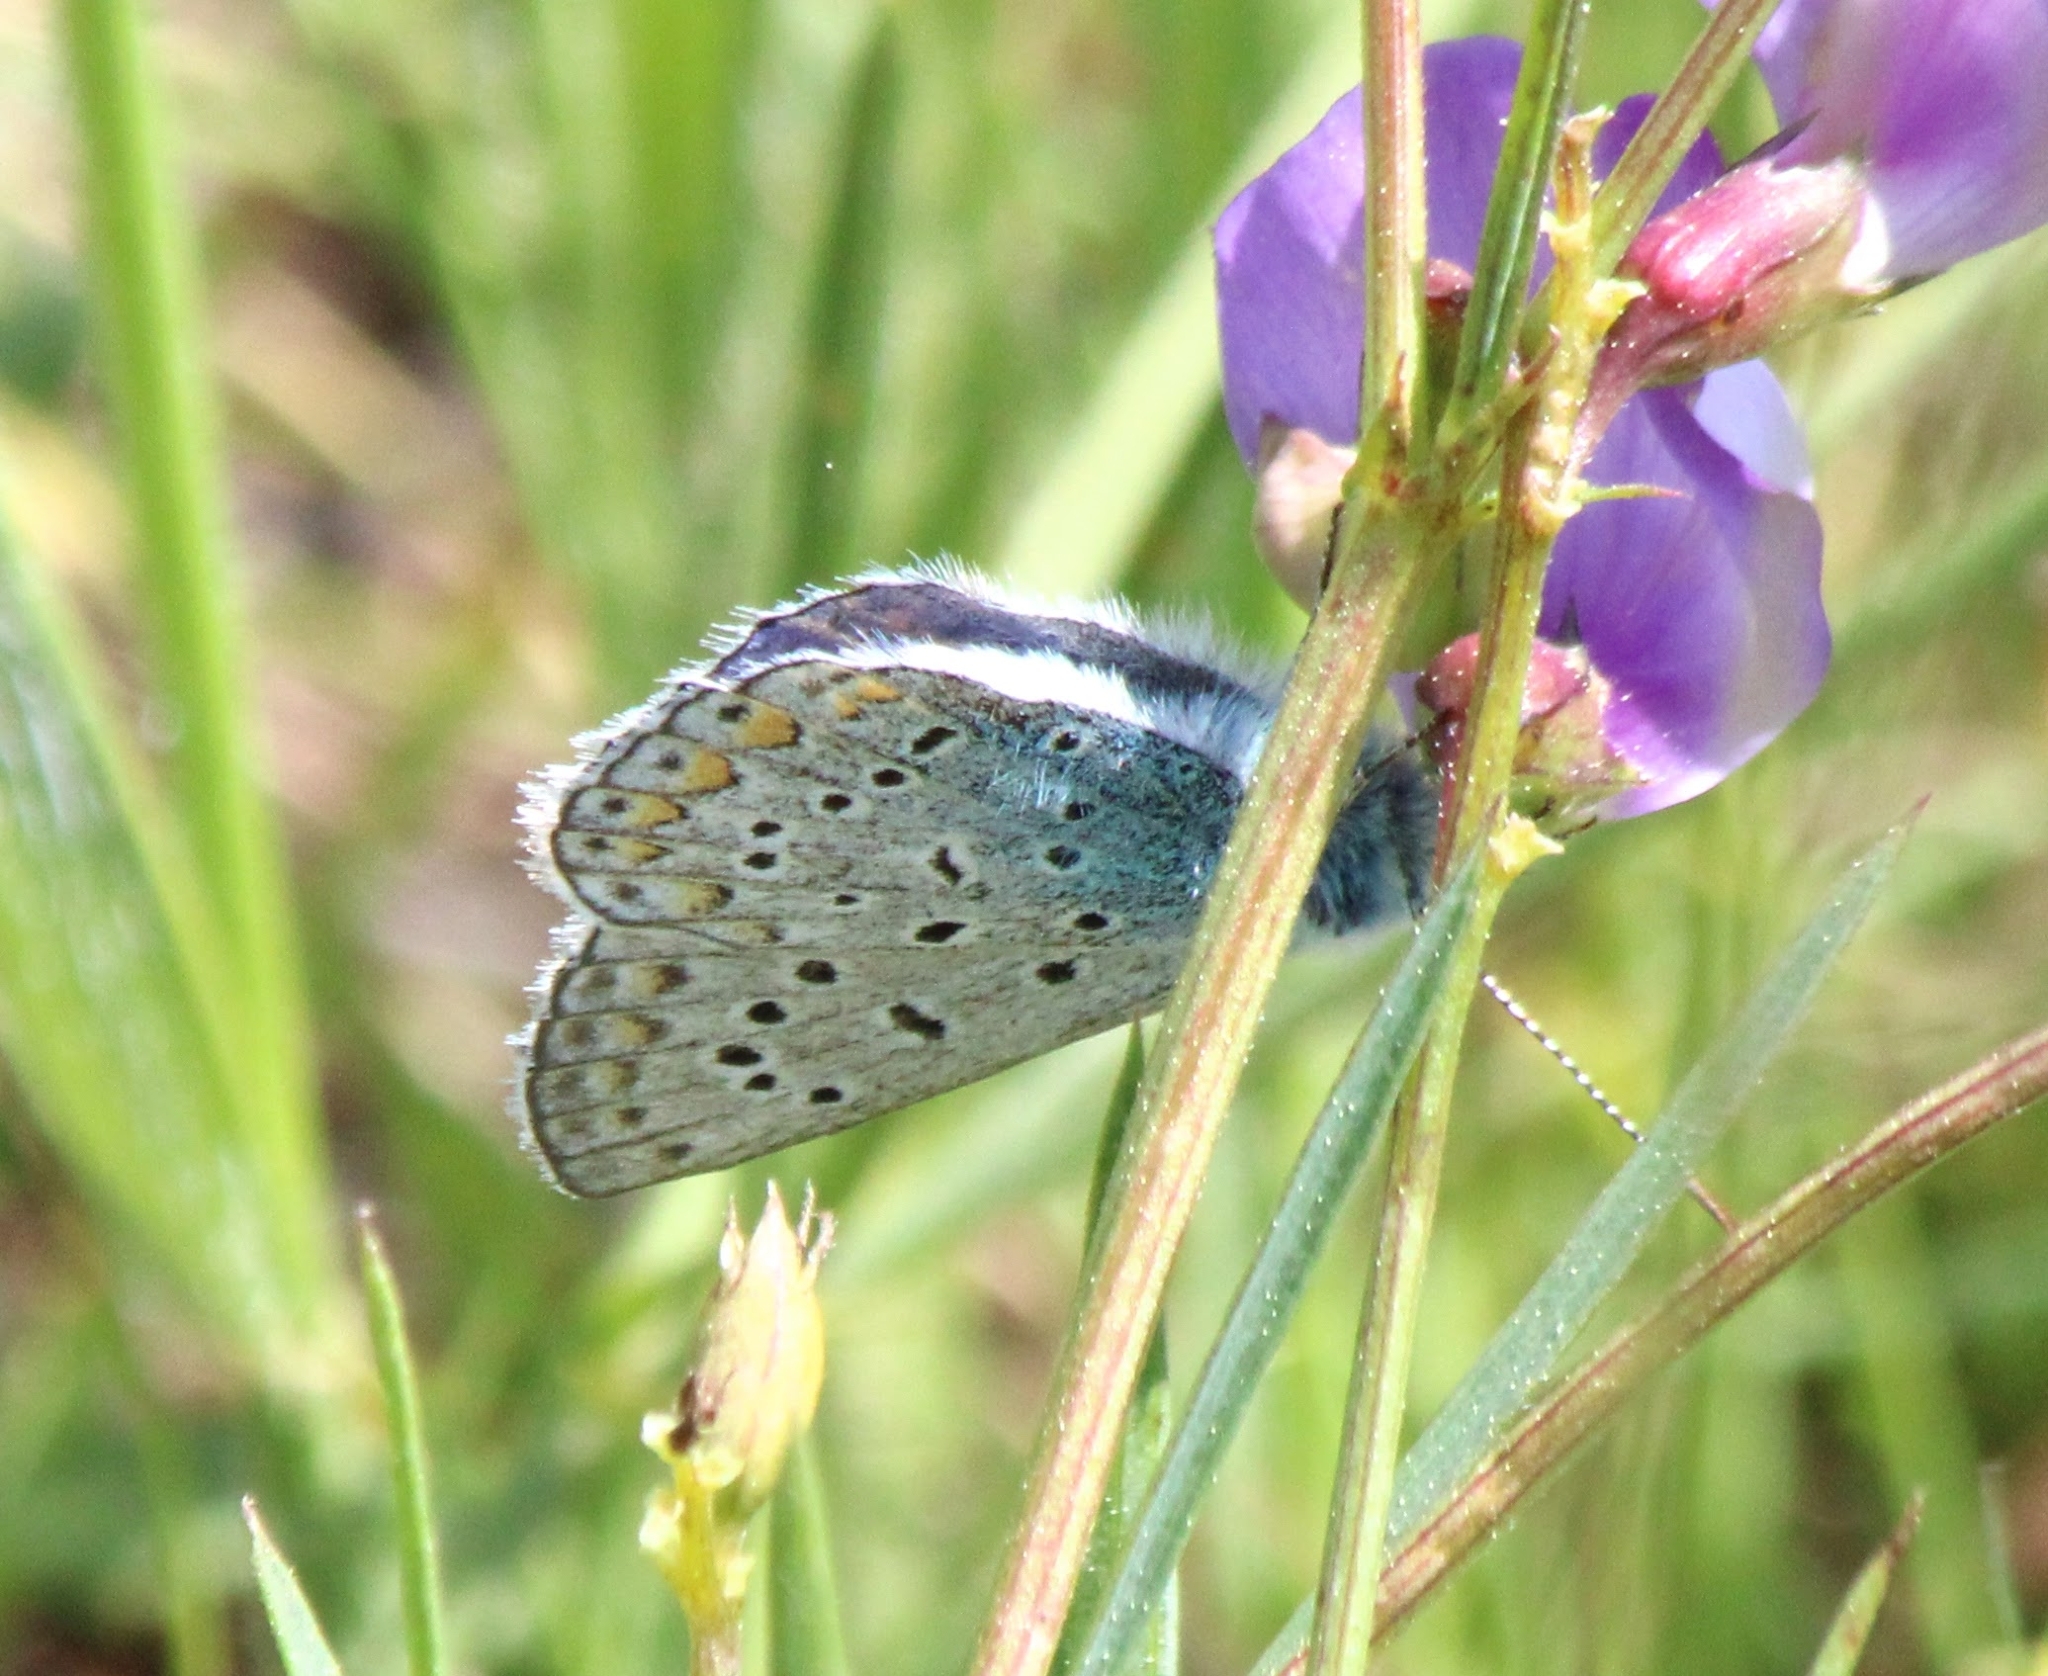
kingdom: Animalia
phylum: Arthropoda
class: Insecta
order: Lepidoptera
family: Lycaenidae
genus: Polyommatus
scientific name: Polyommatus icarus
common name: Common blue
